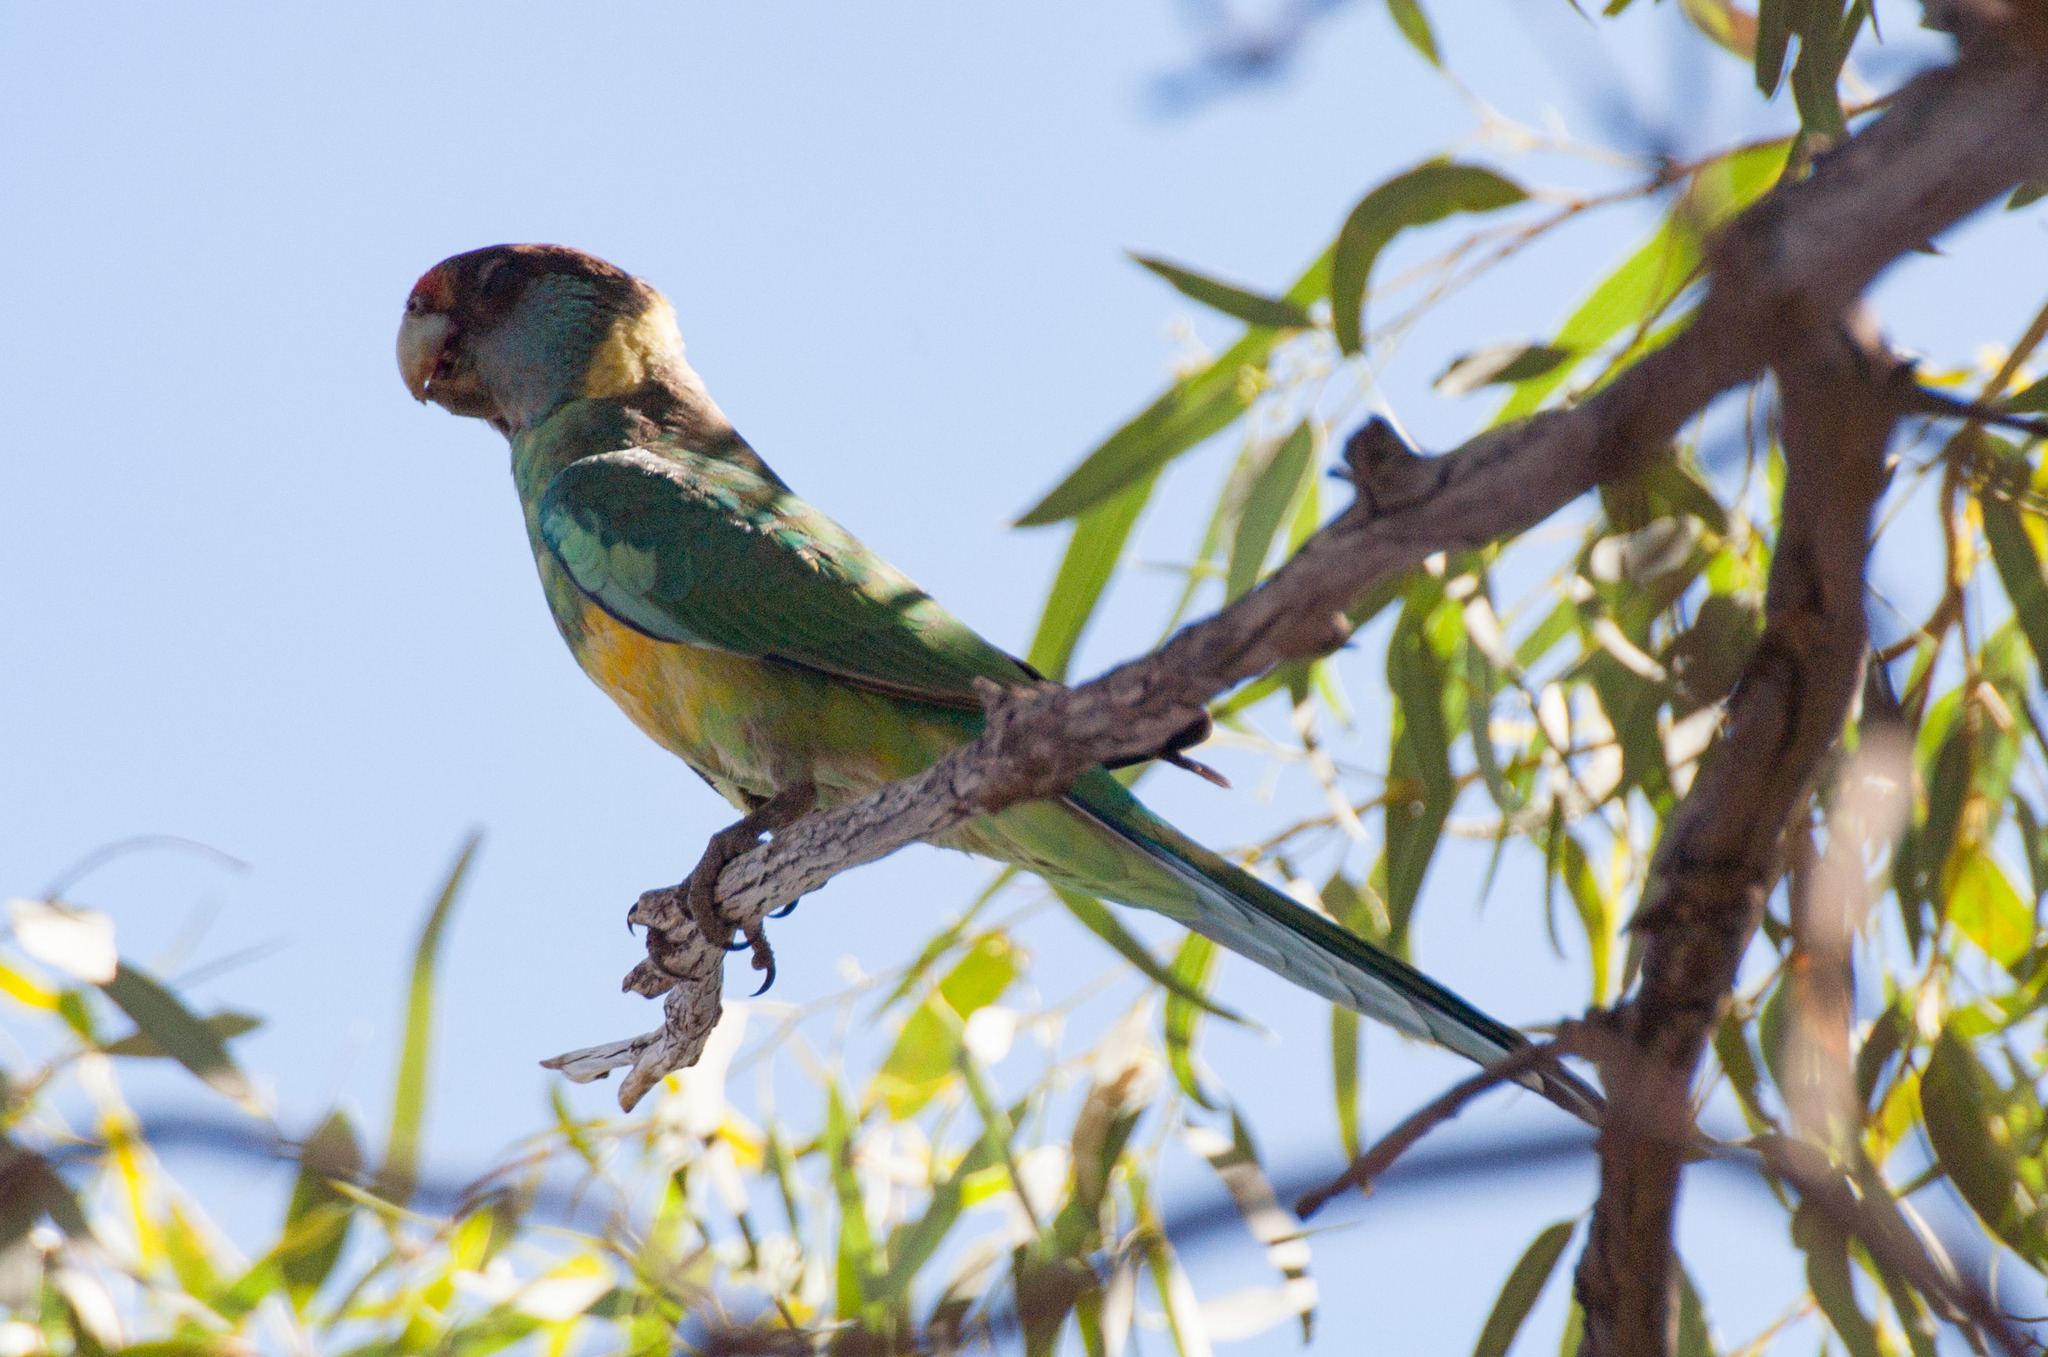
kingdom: Animalia
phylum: Chordata
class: Aves
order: Psittaciformes
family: Psittacidae
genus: Barnardius
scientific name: Barnardius zonarius
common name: Australian ringneck
